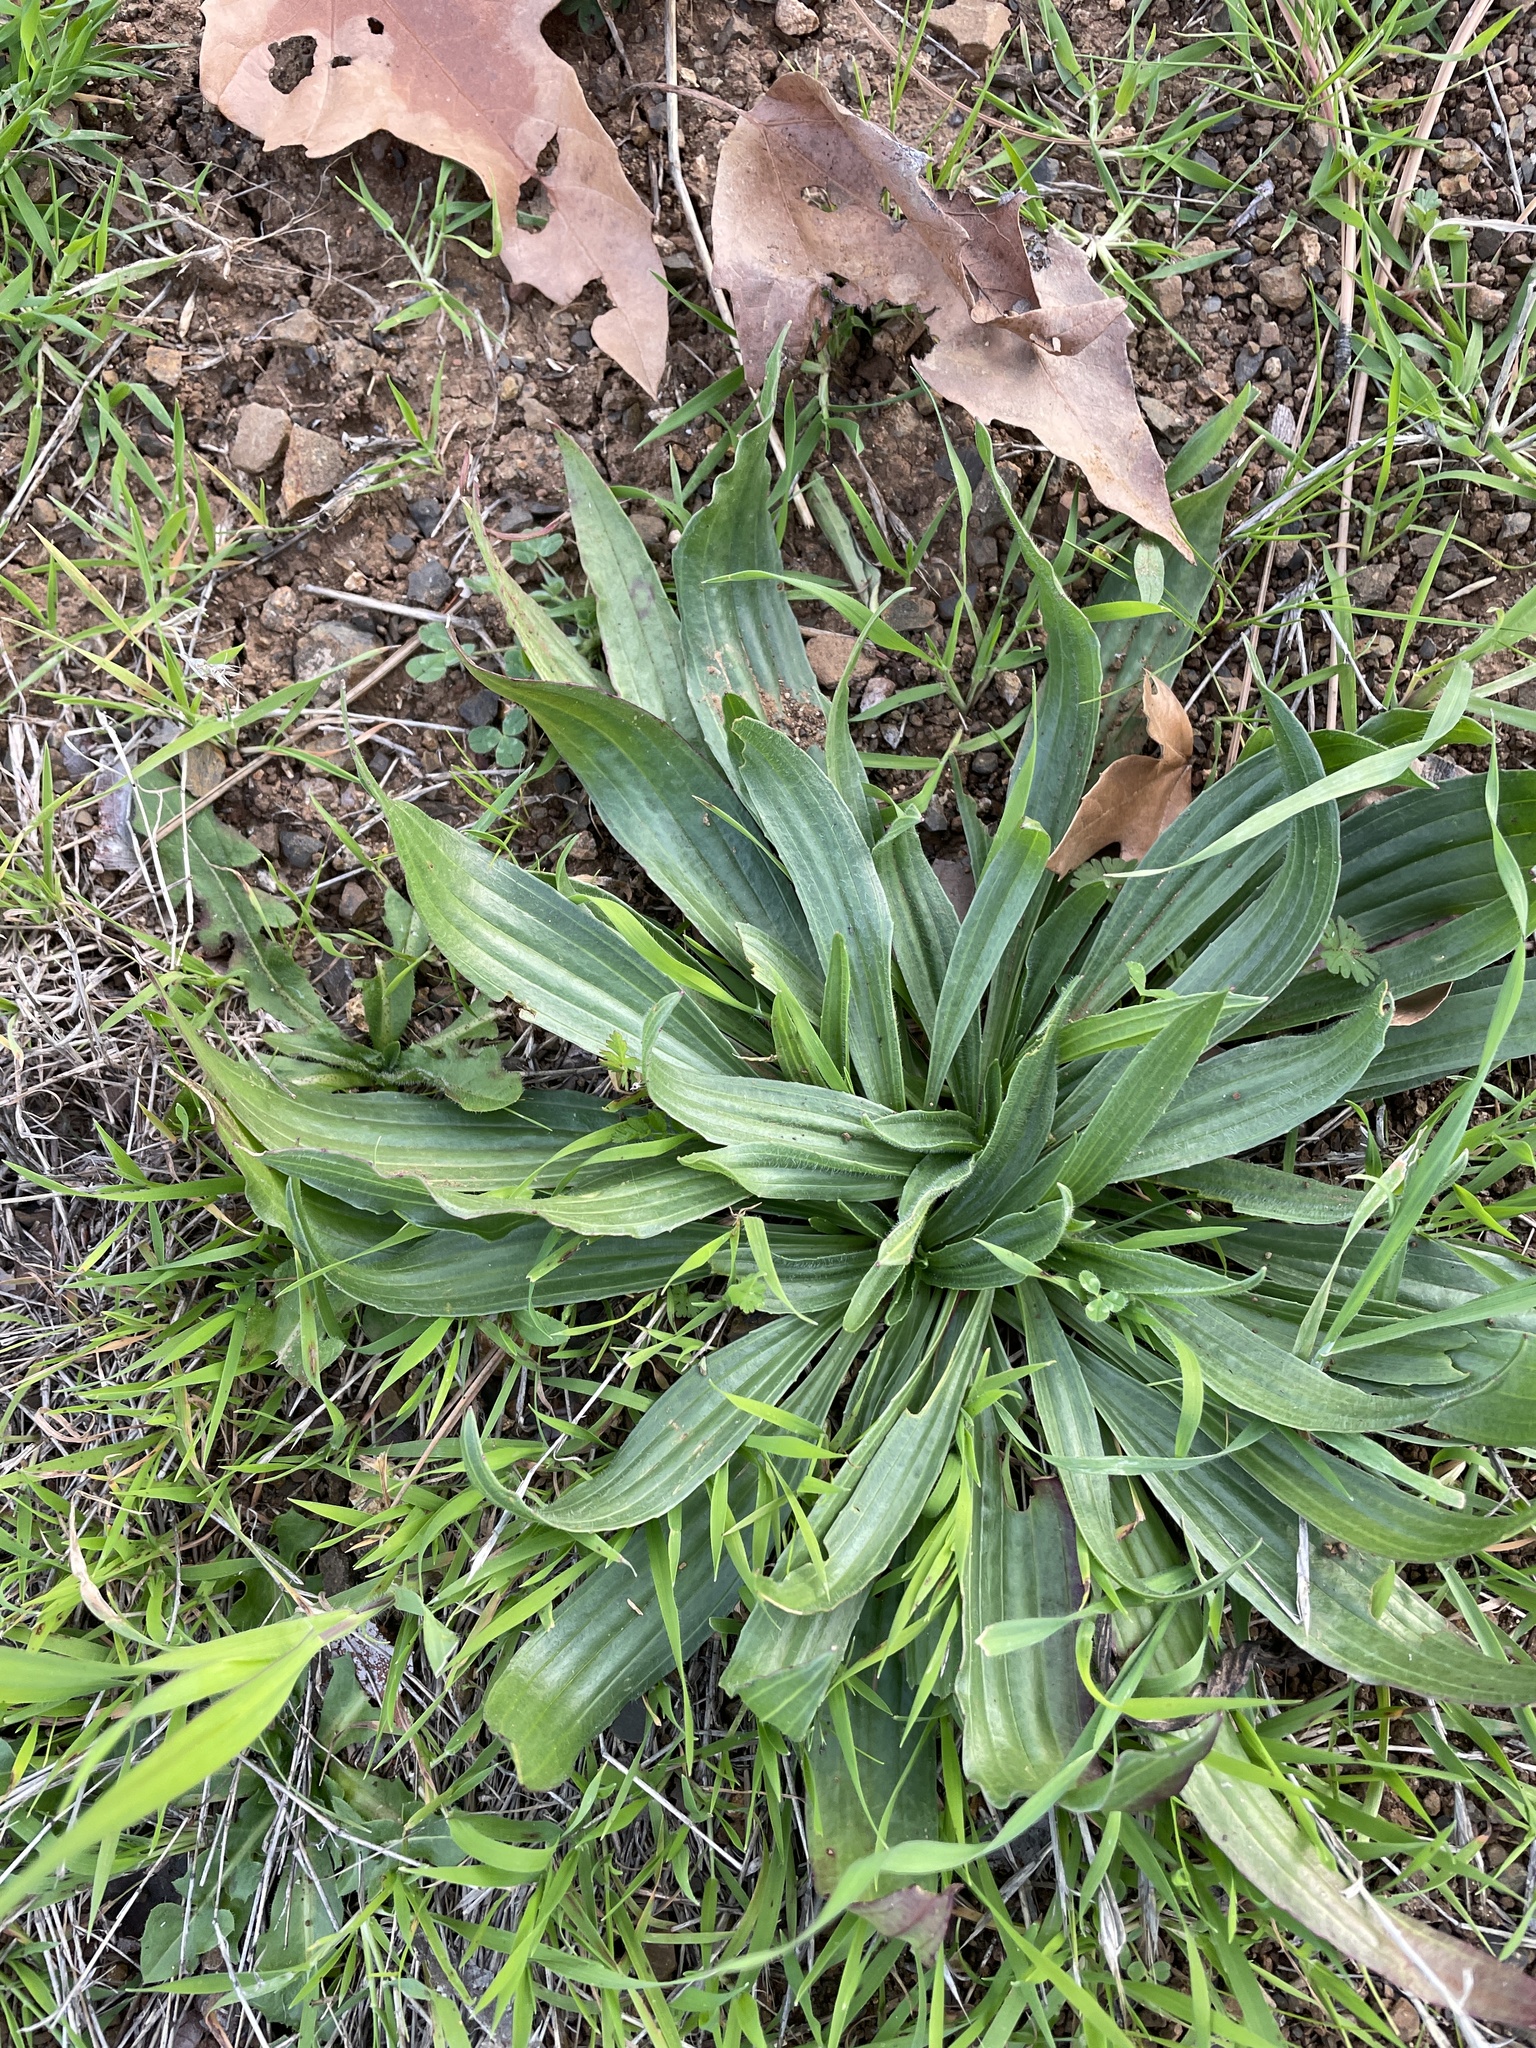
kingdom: Plantae
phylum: Tracheophyta
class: Magnoliopsida
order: Lamiales
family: Plantaginaceae
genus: Plantago
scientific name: Plantago lanceolata
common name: Ribwort plantain
